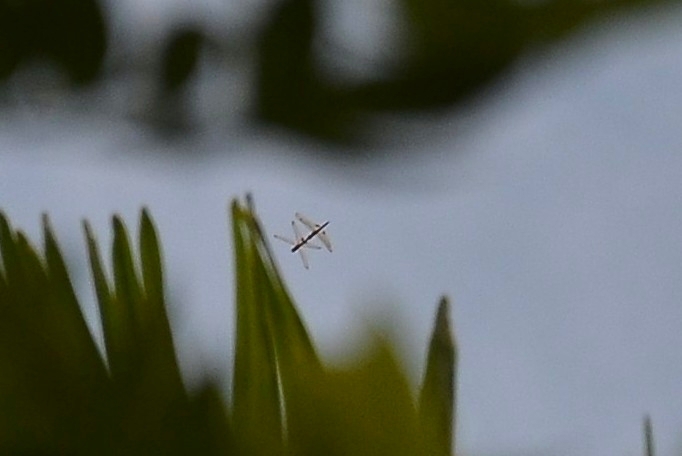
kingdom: Animalia
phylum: Arthropoda
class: Insecta
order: Odonata
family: Libellulidae
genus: Hydrobasileus
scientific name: Hydrobasileus croceus
